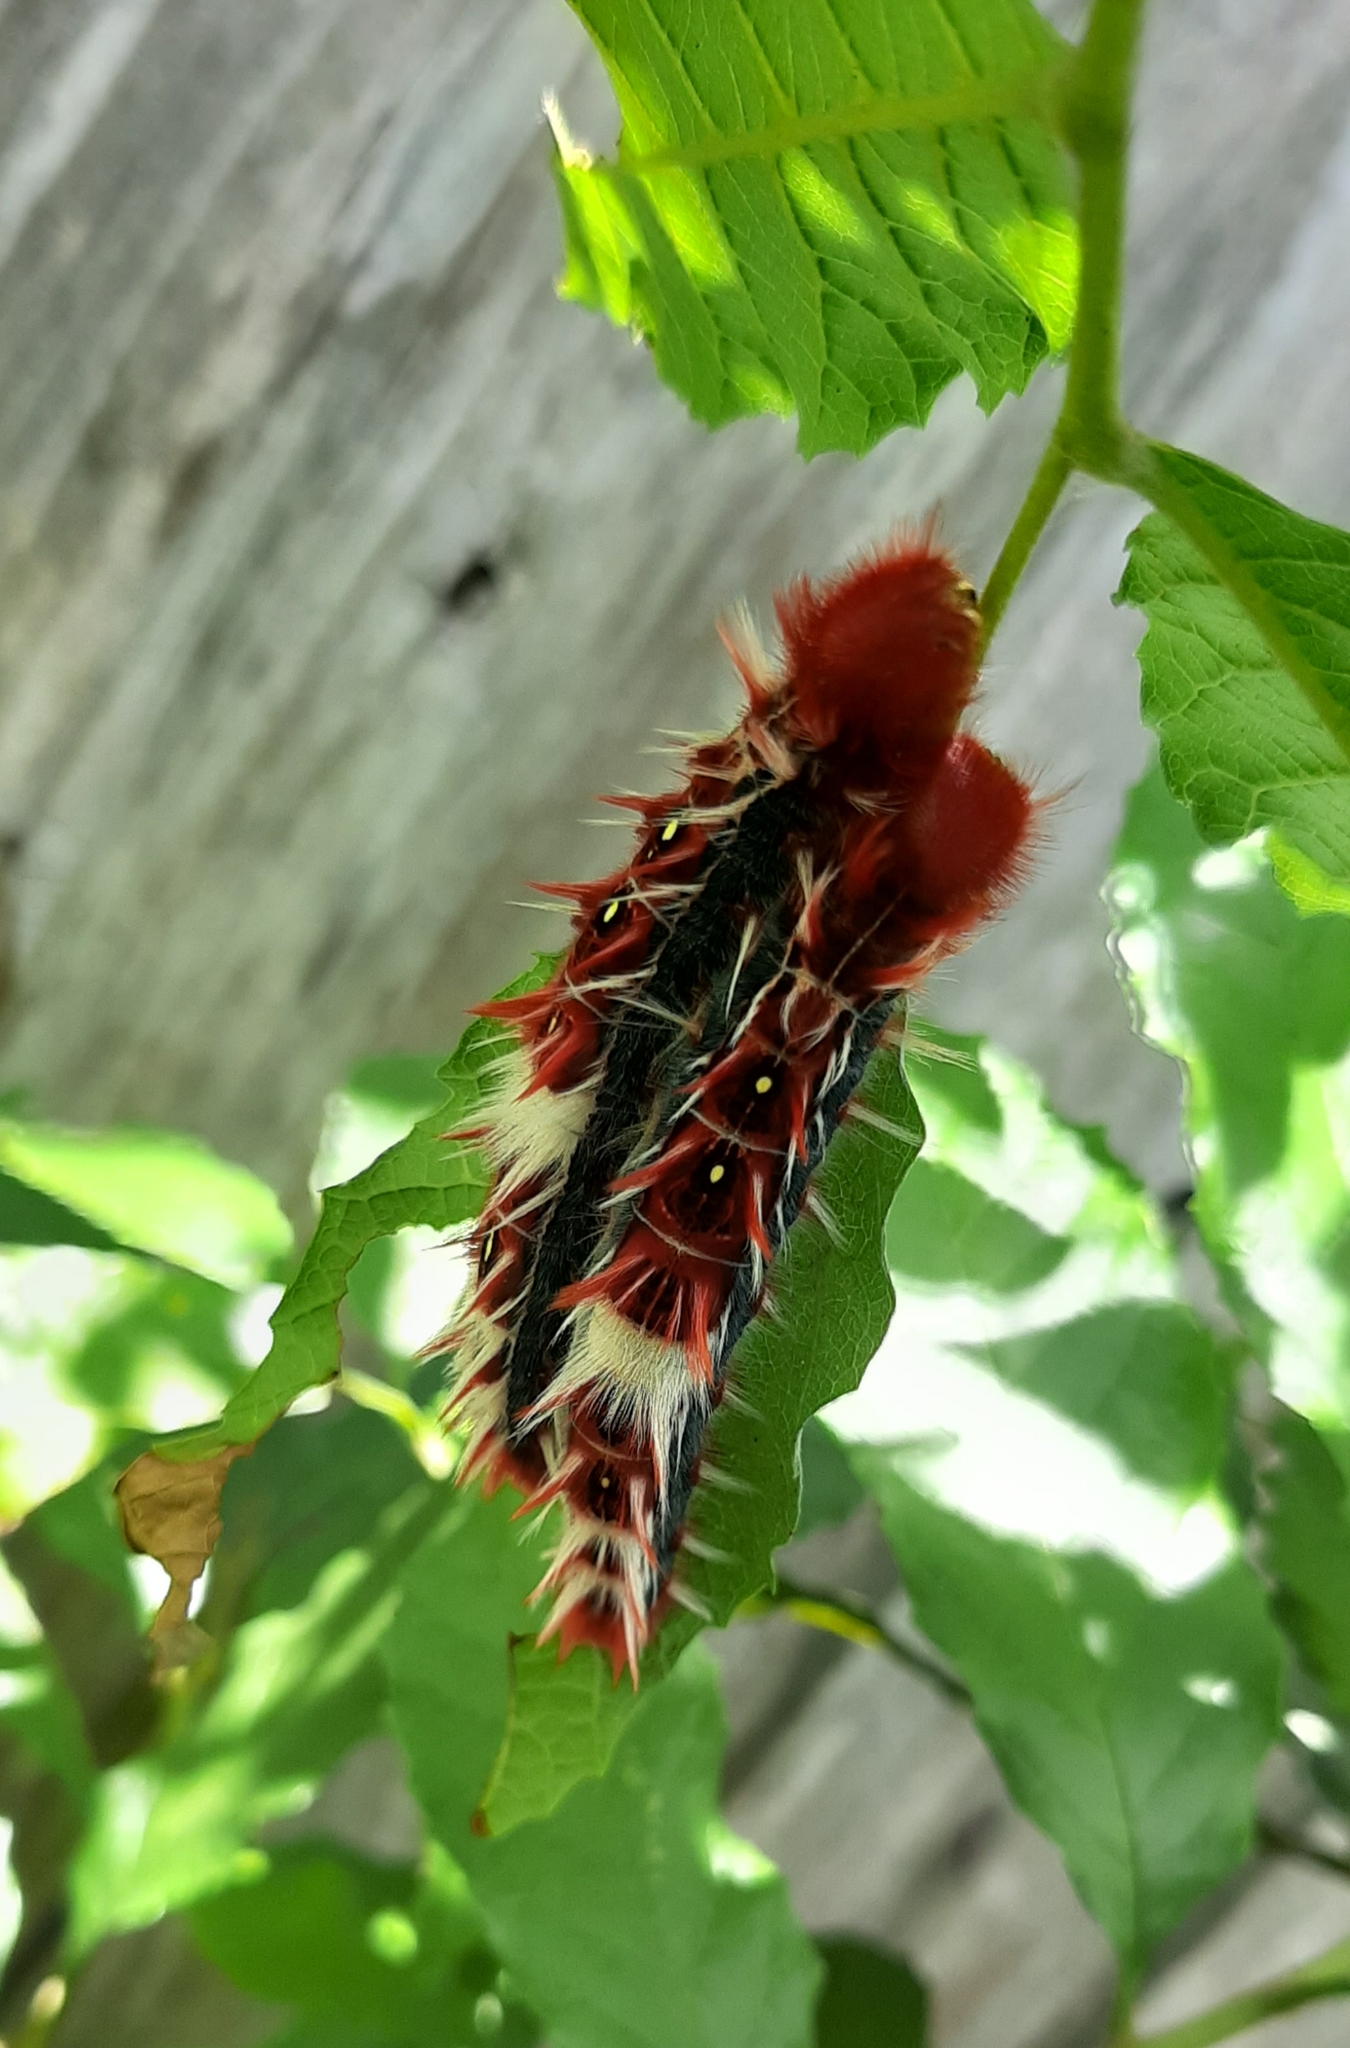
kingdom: Animalia
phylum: Arthropoda
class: Insecta
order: Lepidoptera
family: Nymphalidae
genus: Morpho
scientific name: Morpho epistrophus
